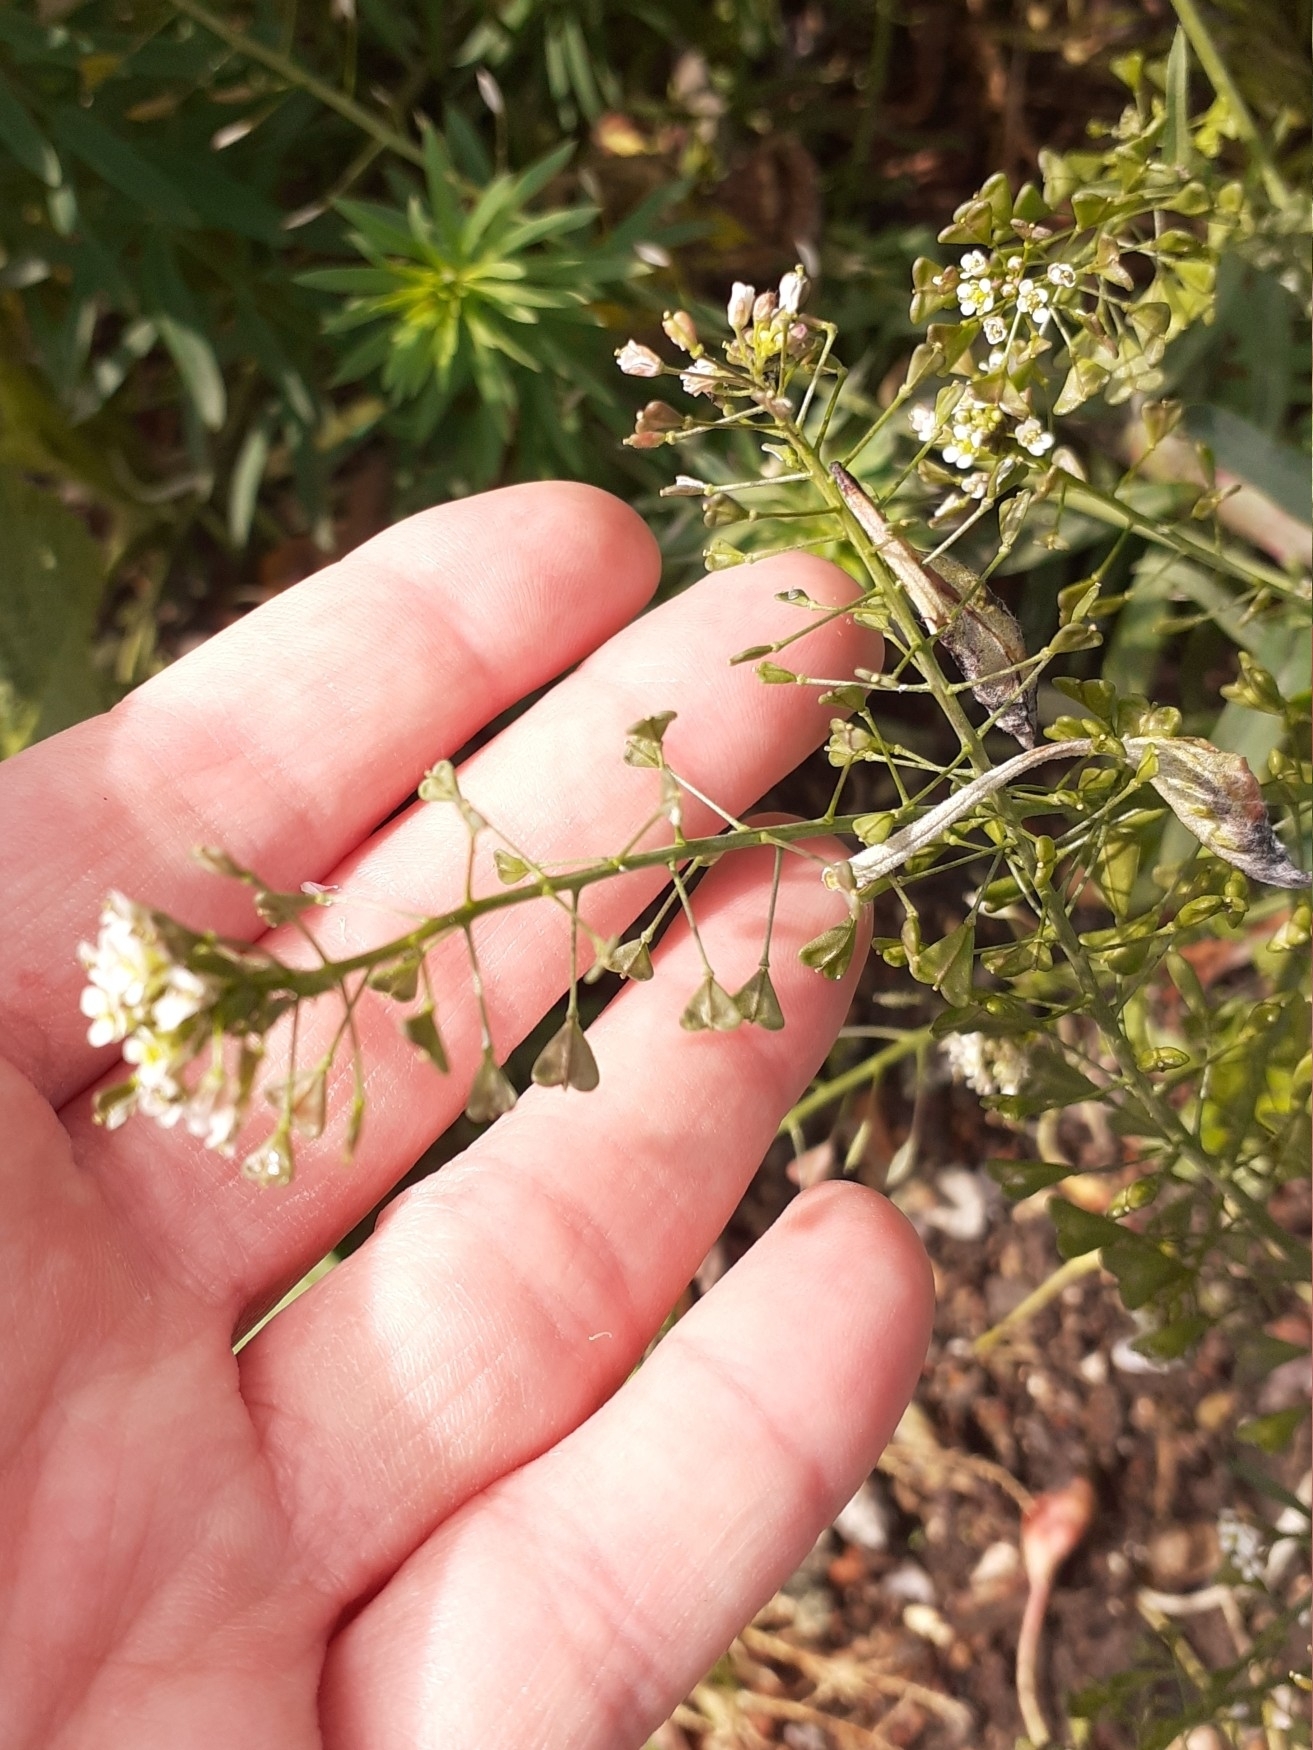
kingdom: Plantae
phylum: Tracheophyta
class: Magnoliopsida
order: Brassicales
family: Brassicaceae
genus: Capsella
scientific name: Capsella bursa-pastoris
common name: Shepherd's purse
